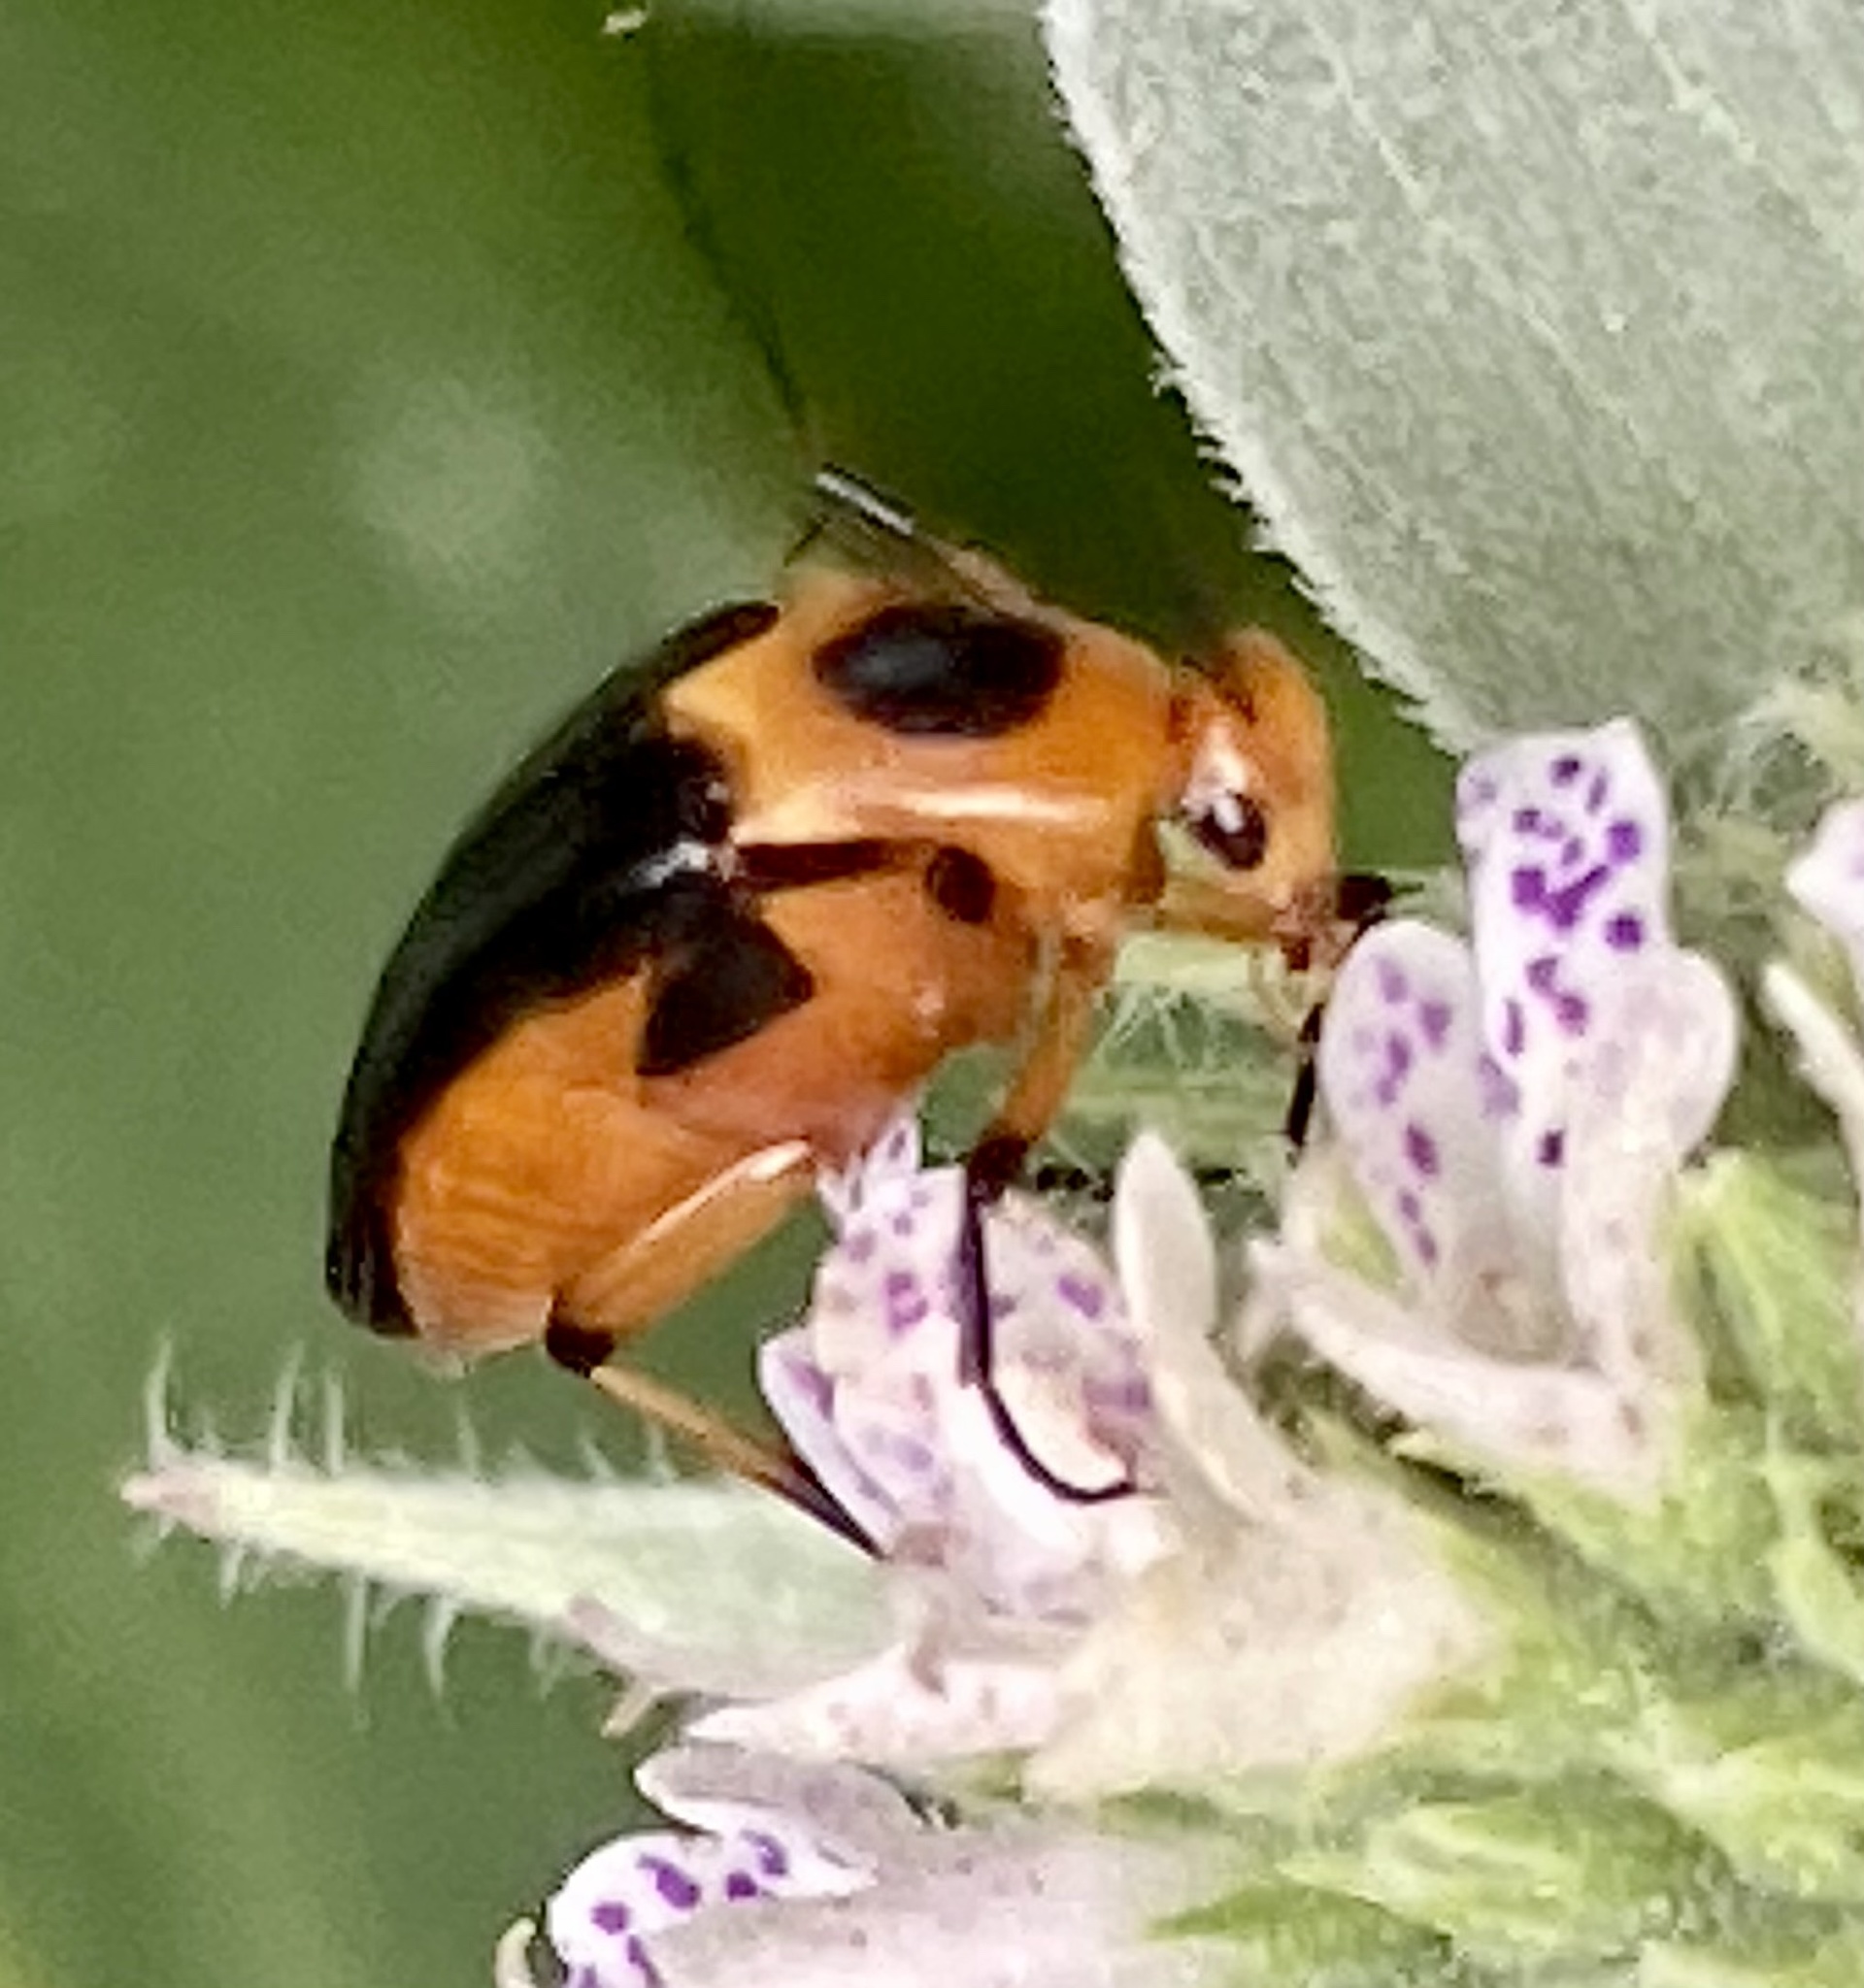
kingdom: Animalia
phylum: Arthropoda
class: Insecta
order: Coleoptera
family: Ripiphoridae
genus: Macrosiagon
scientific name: Macrosiagon limbatum
